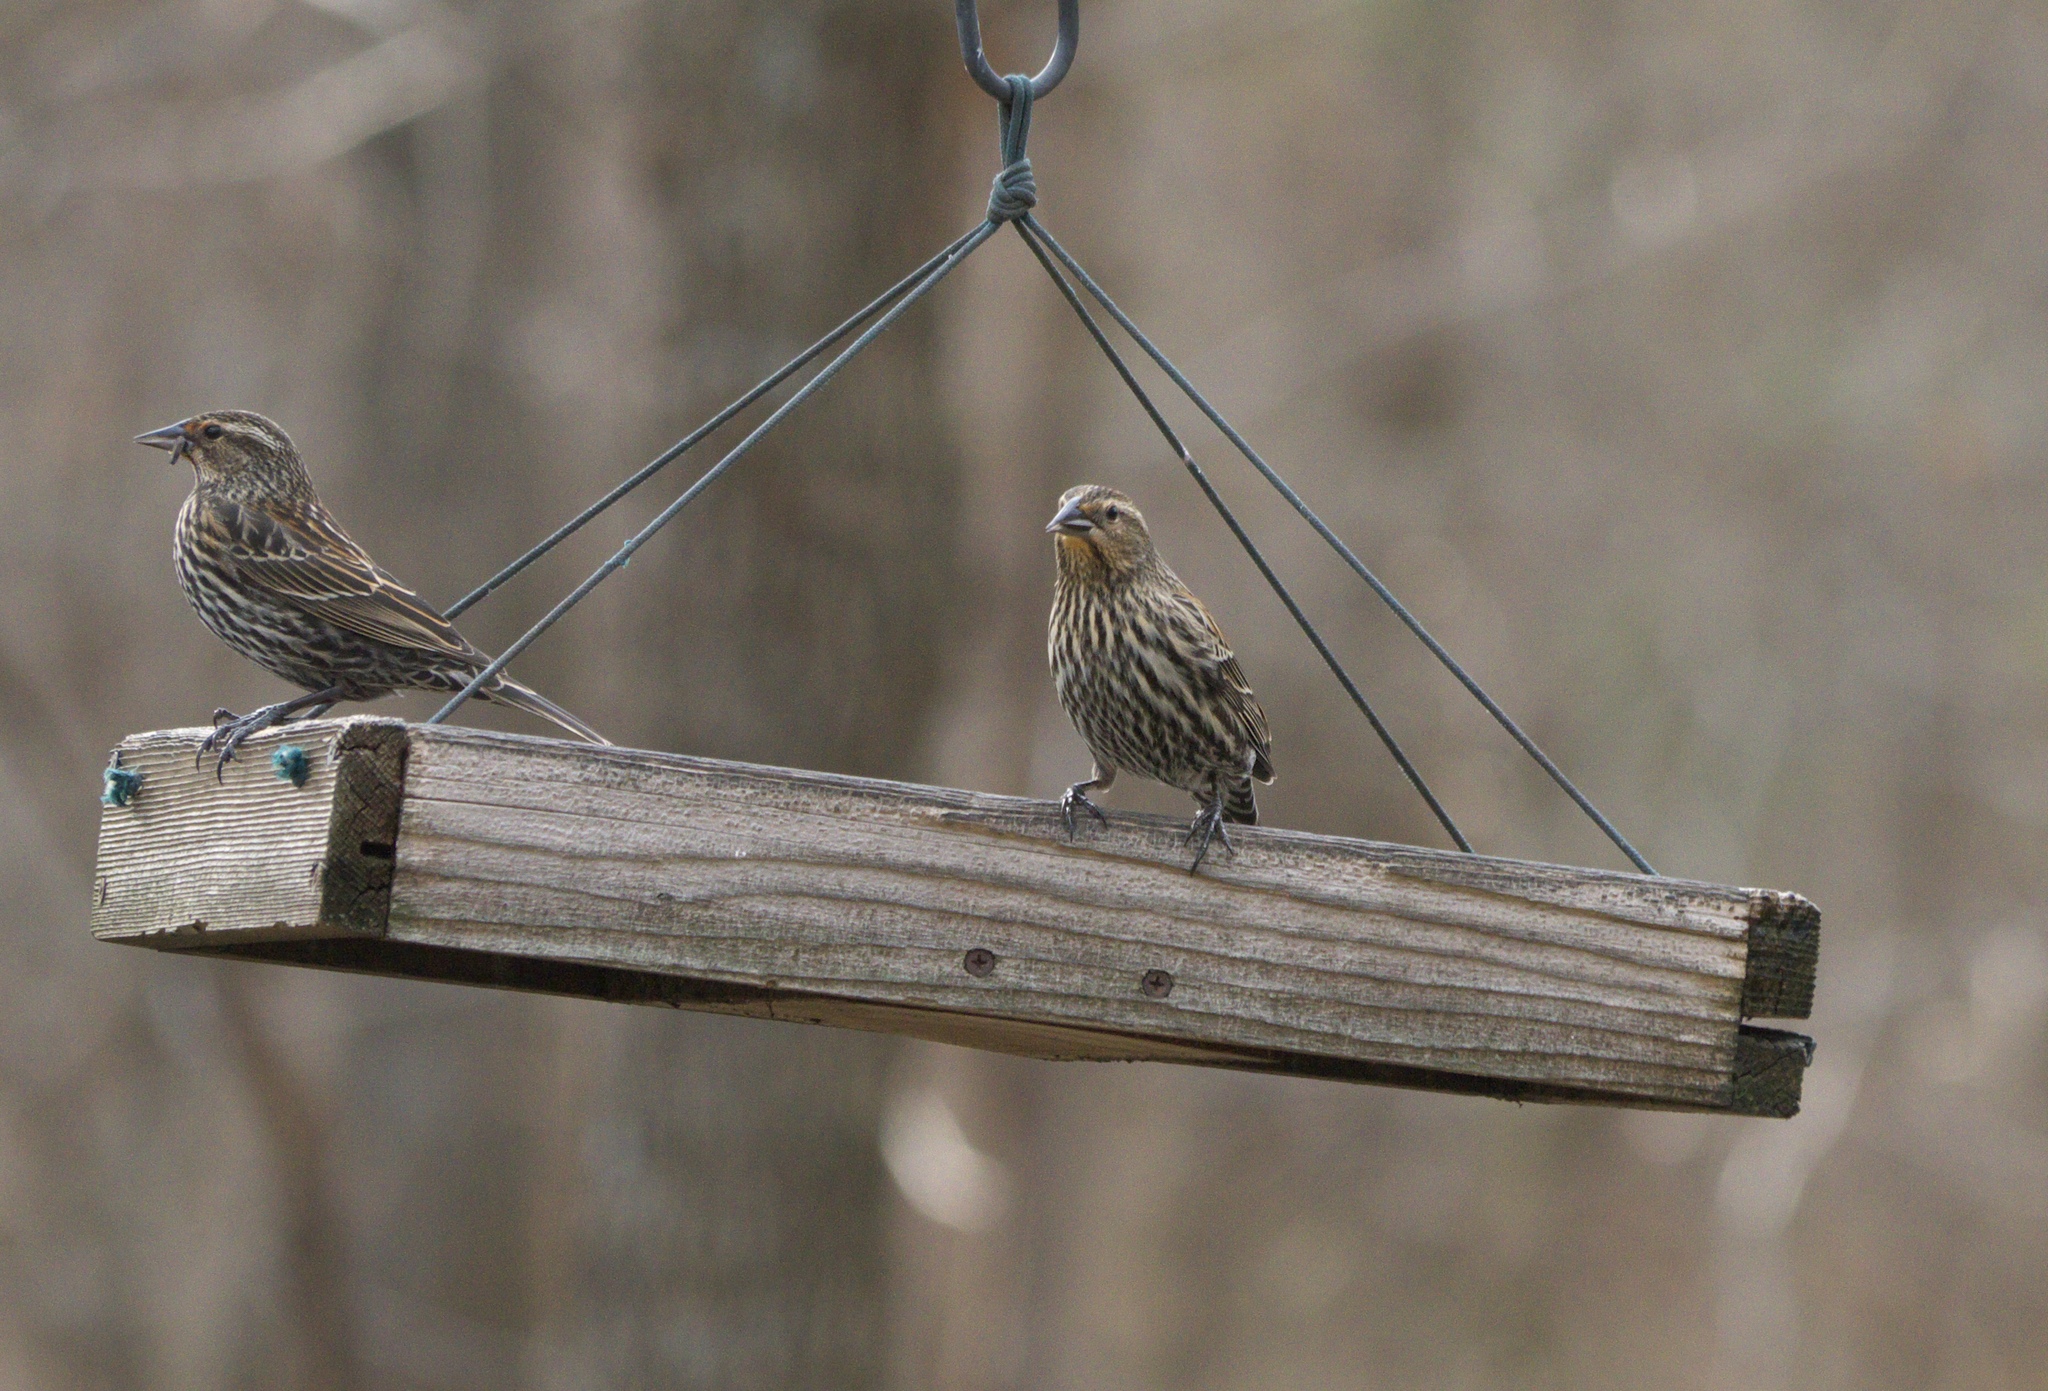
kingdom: Animalia
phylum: Chordata
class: Aves
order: Passeriformes
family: Icteridae
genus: Agelaius
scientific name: Agelaius phoeniceus
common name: Red-winged blackbird
